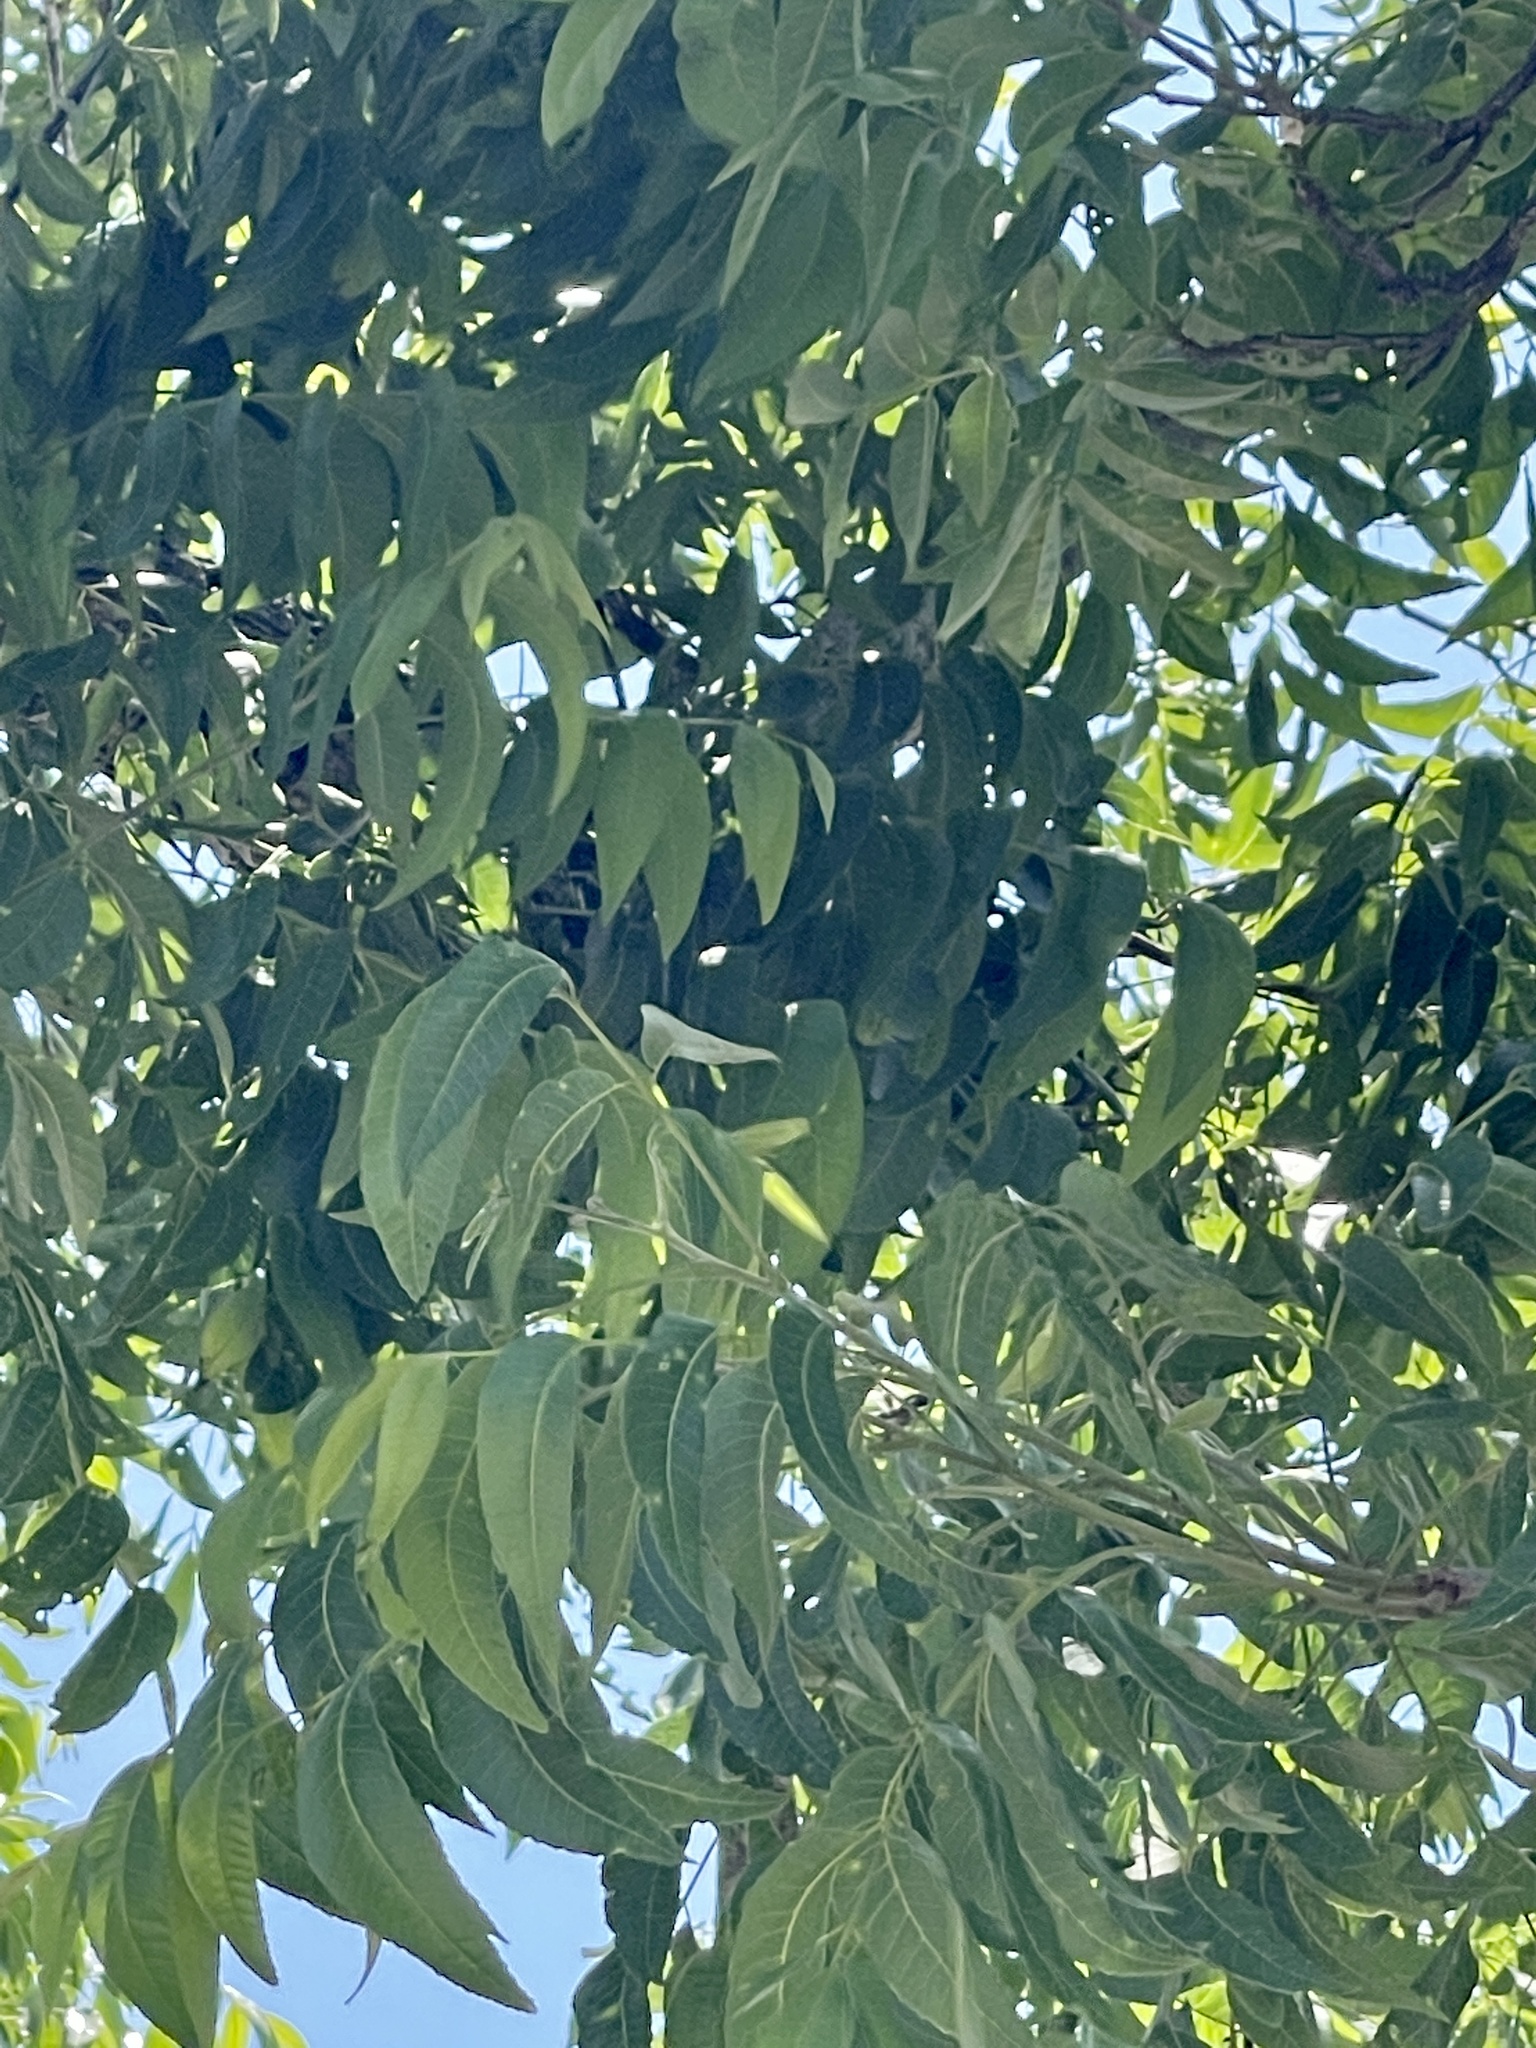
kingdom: Plantae
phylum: Tracheophyta
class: Magnoliopsida
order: Fagales
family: Juglandaceae
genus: Carya
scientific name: Carya illinoinensis
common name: Pecan
